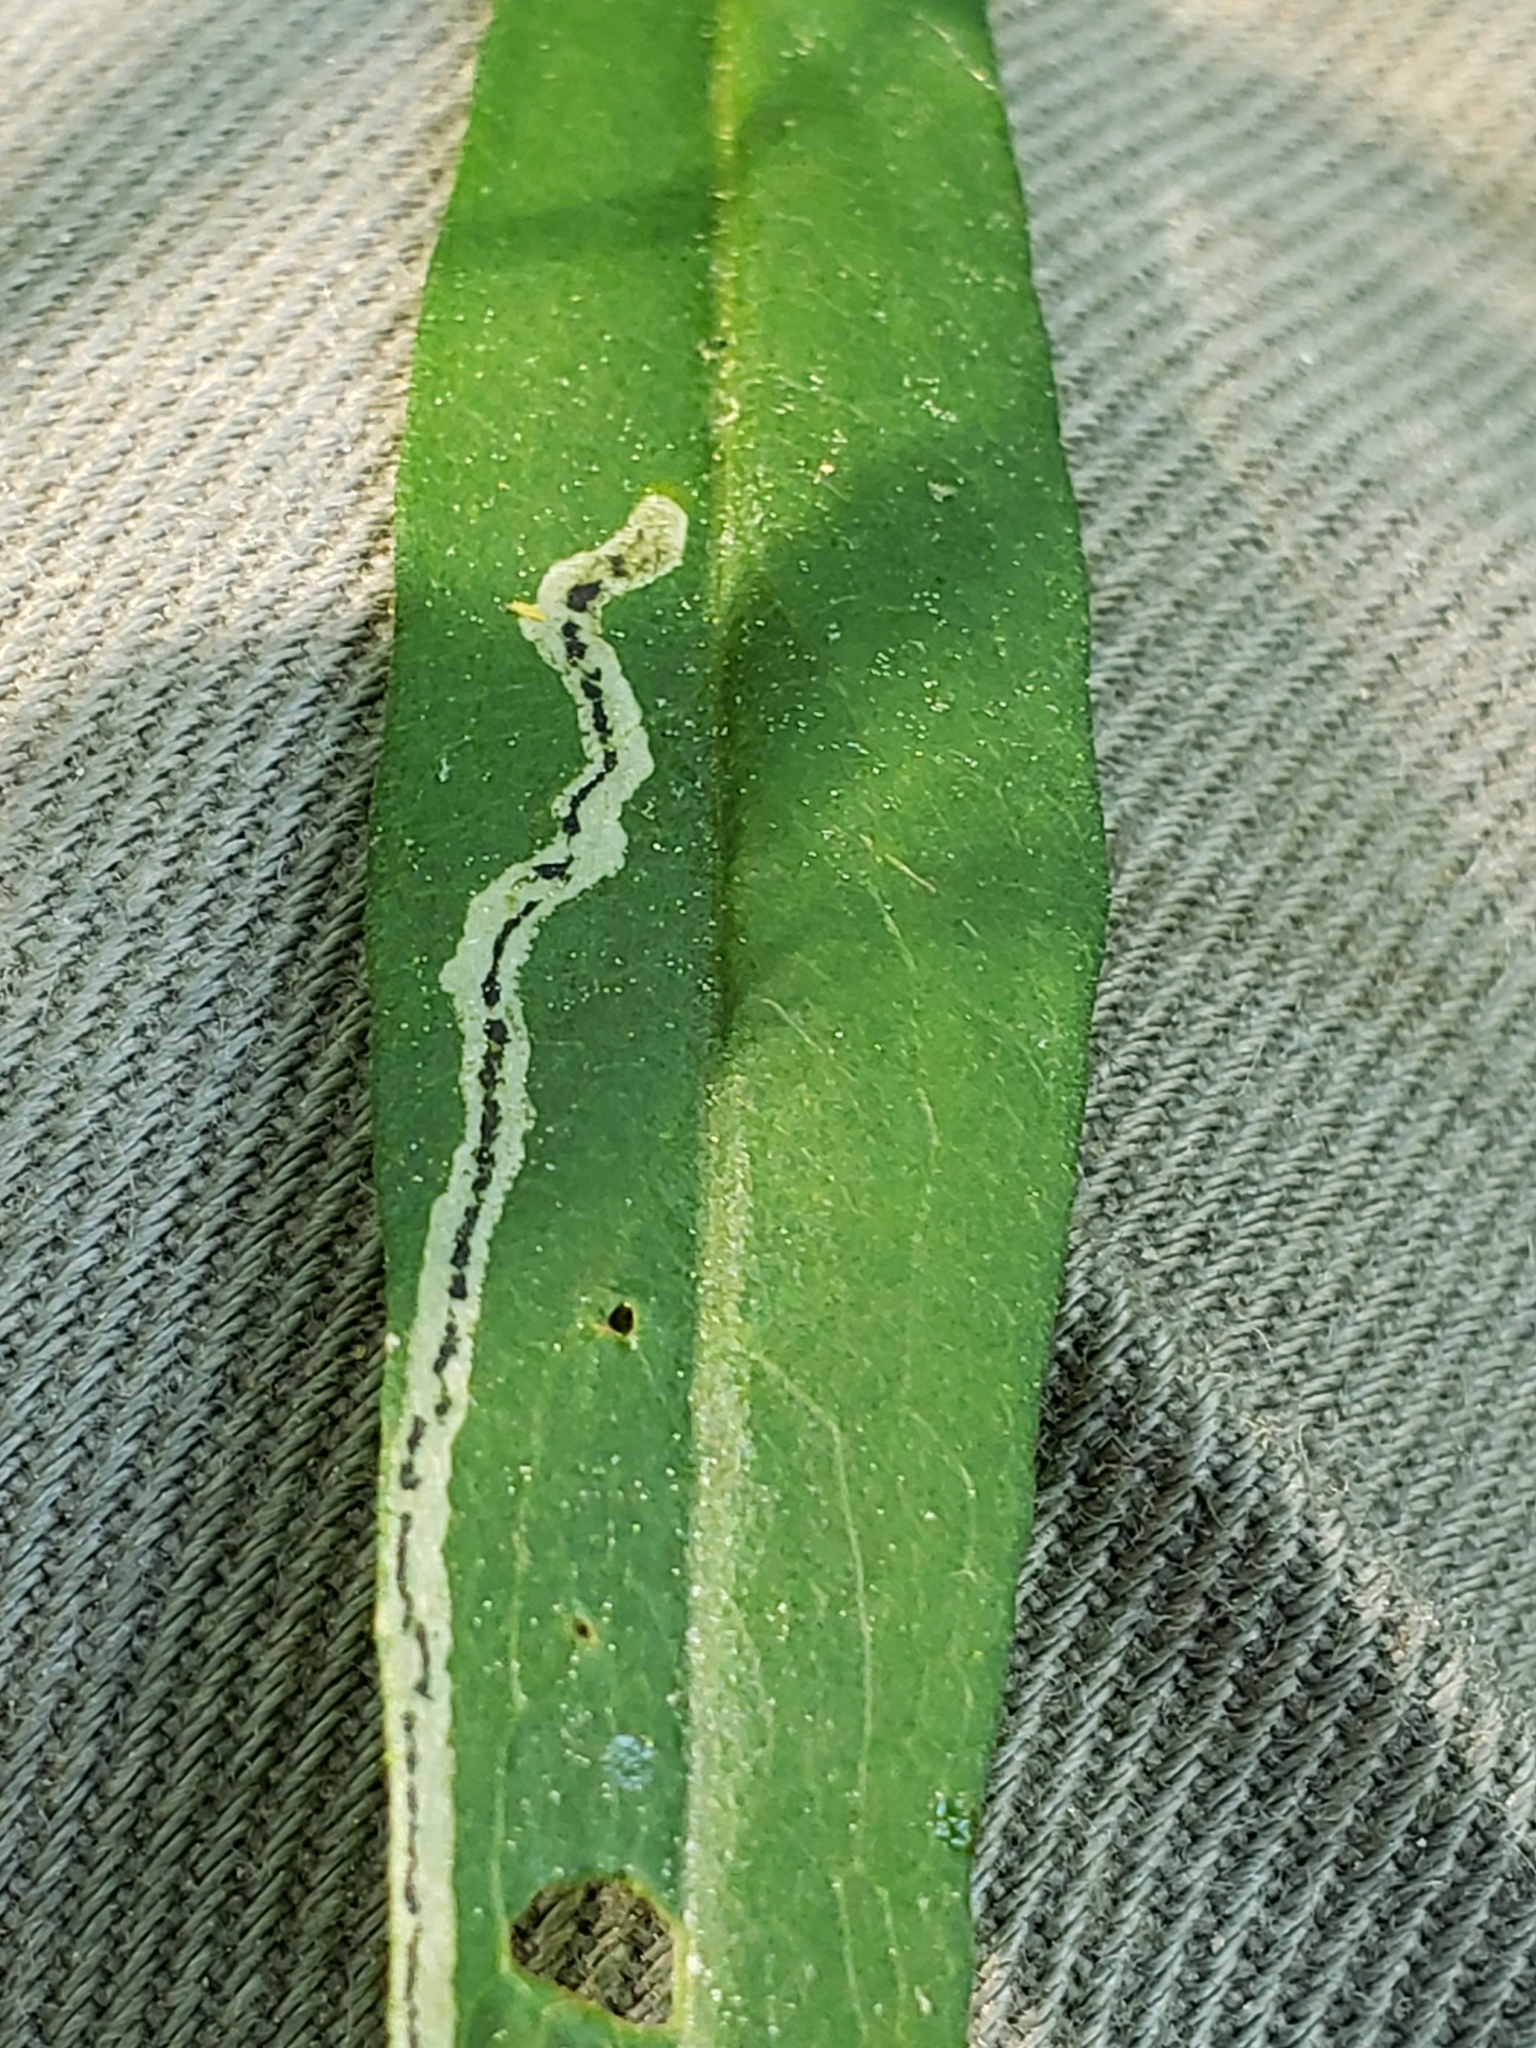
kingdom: Animalia
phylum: Arthropoda
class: Insecta
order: Diptera
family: Agromyzidae
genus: Liriomyza
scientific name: Liriomyza eupatorii
